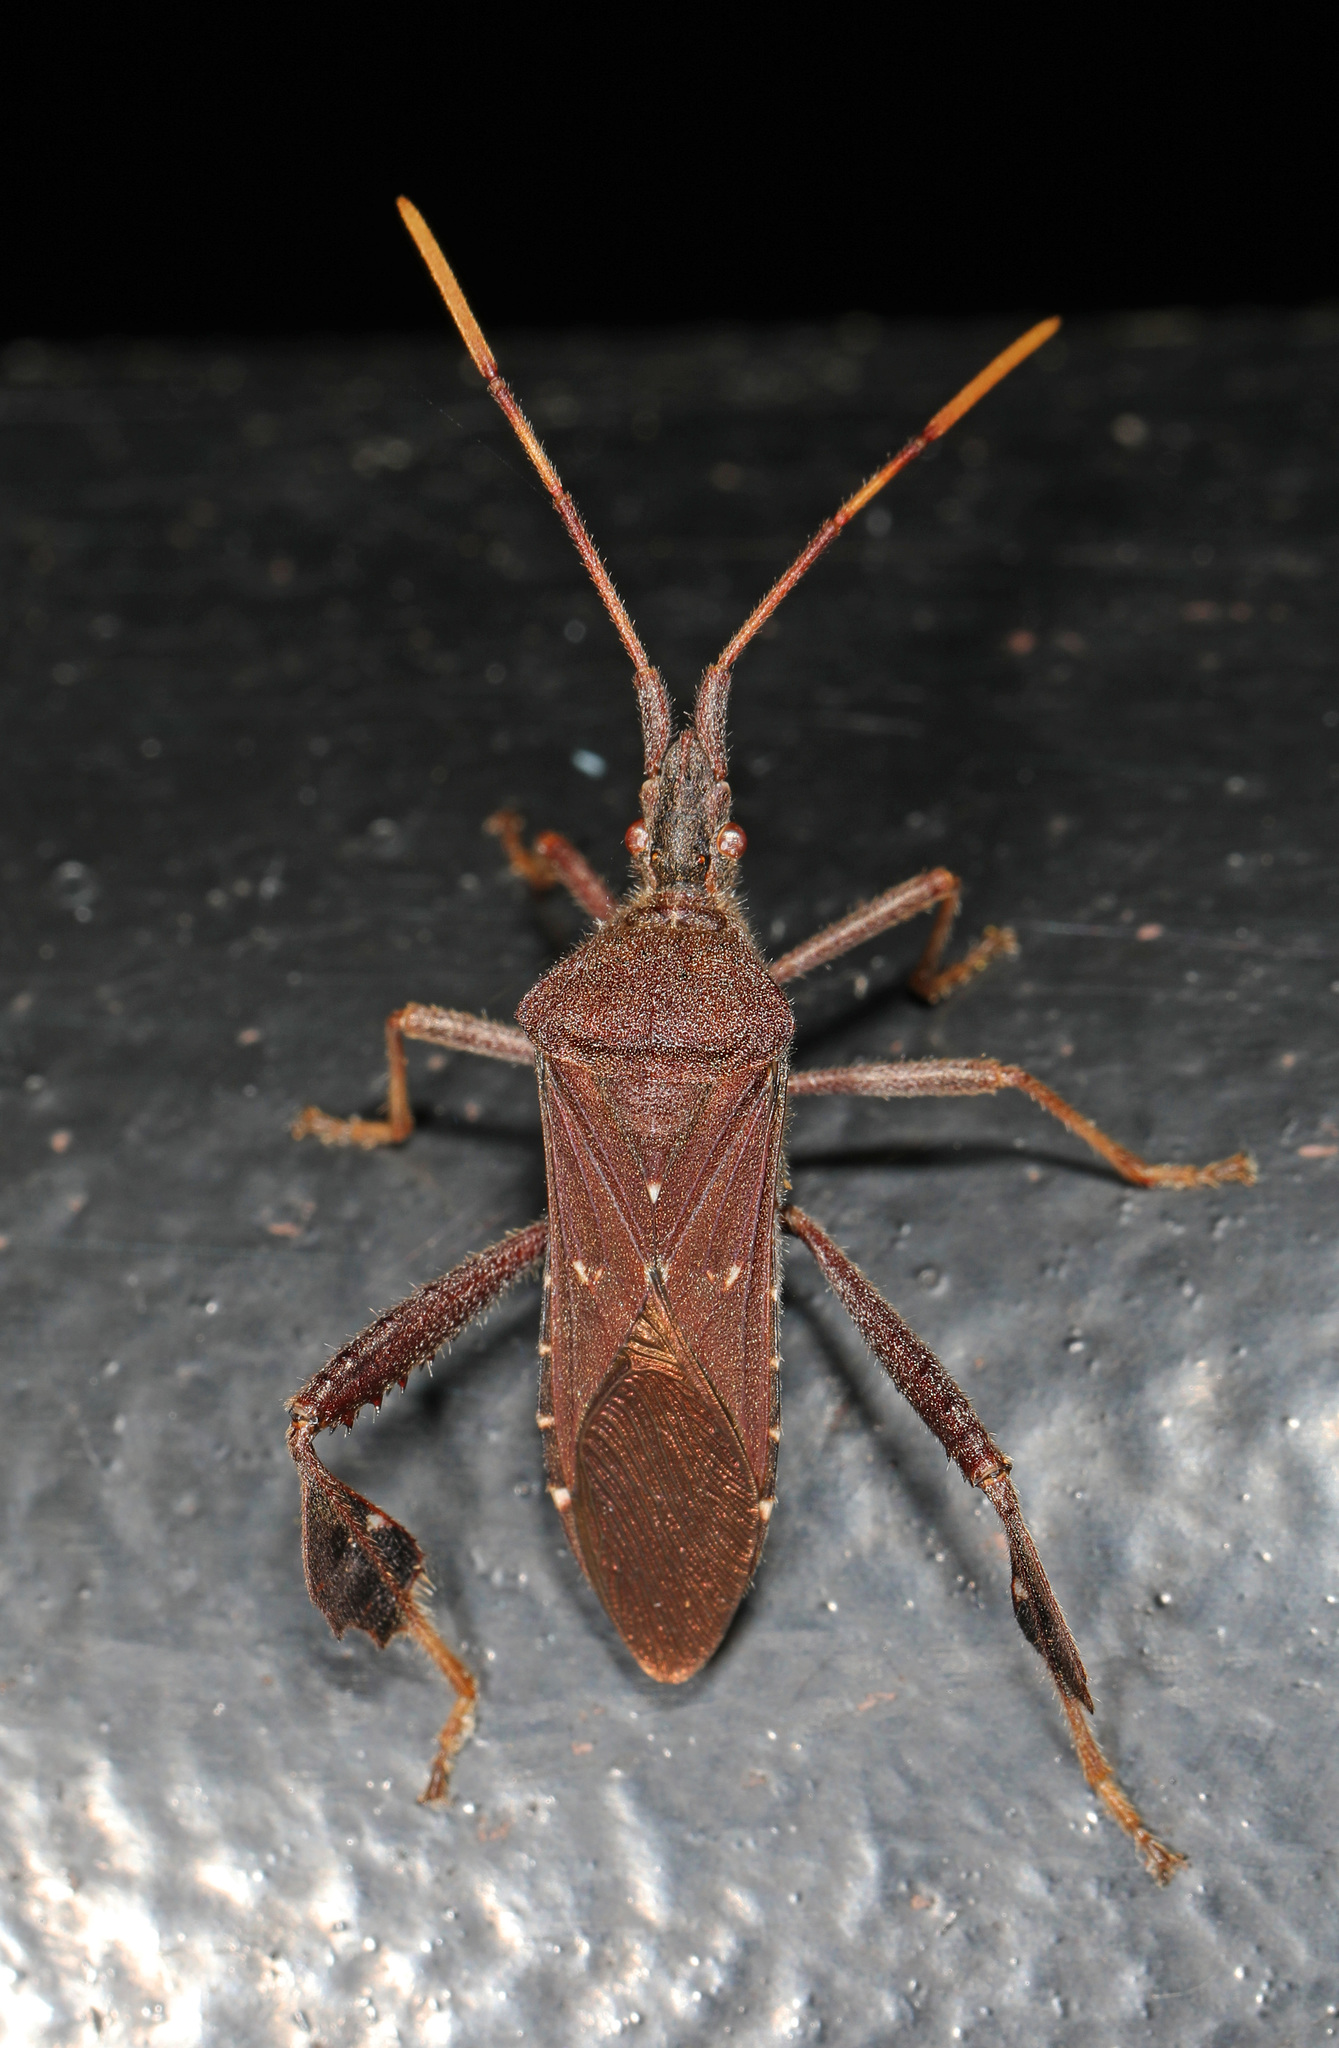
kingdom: Animalia
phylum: Arthropoda
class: Insecta
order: Hemiptera
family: Coreidae
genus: Leptoglossus
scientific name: Leptoglossus oppositus
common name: Northern leaf-footed bug
